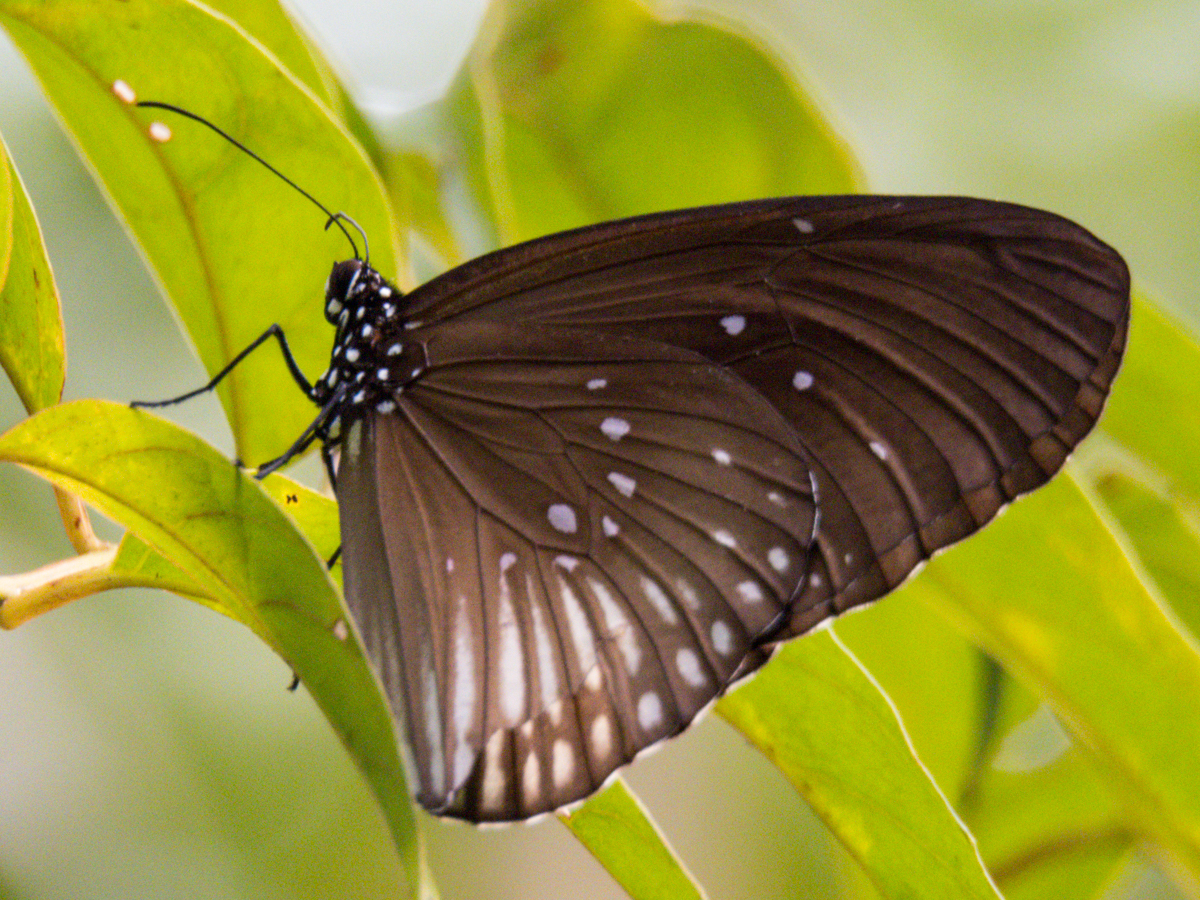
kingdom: Animalia
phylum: Arthropoda
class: Insecta
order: Lepidoptera
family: Nymphalidae
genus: Euploea
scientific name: Euploea eyndhovii
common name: Striped black crow butterfly
